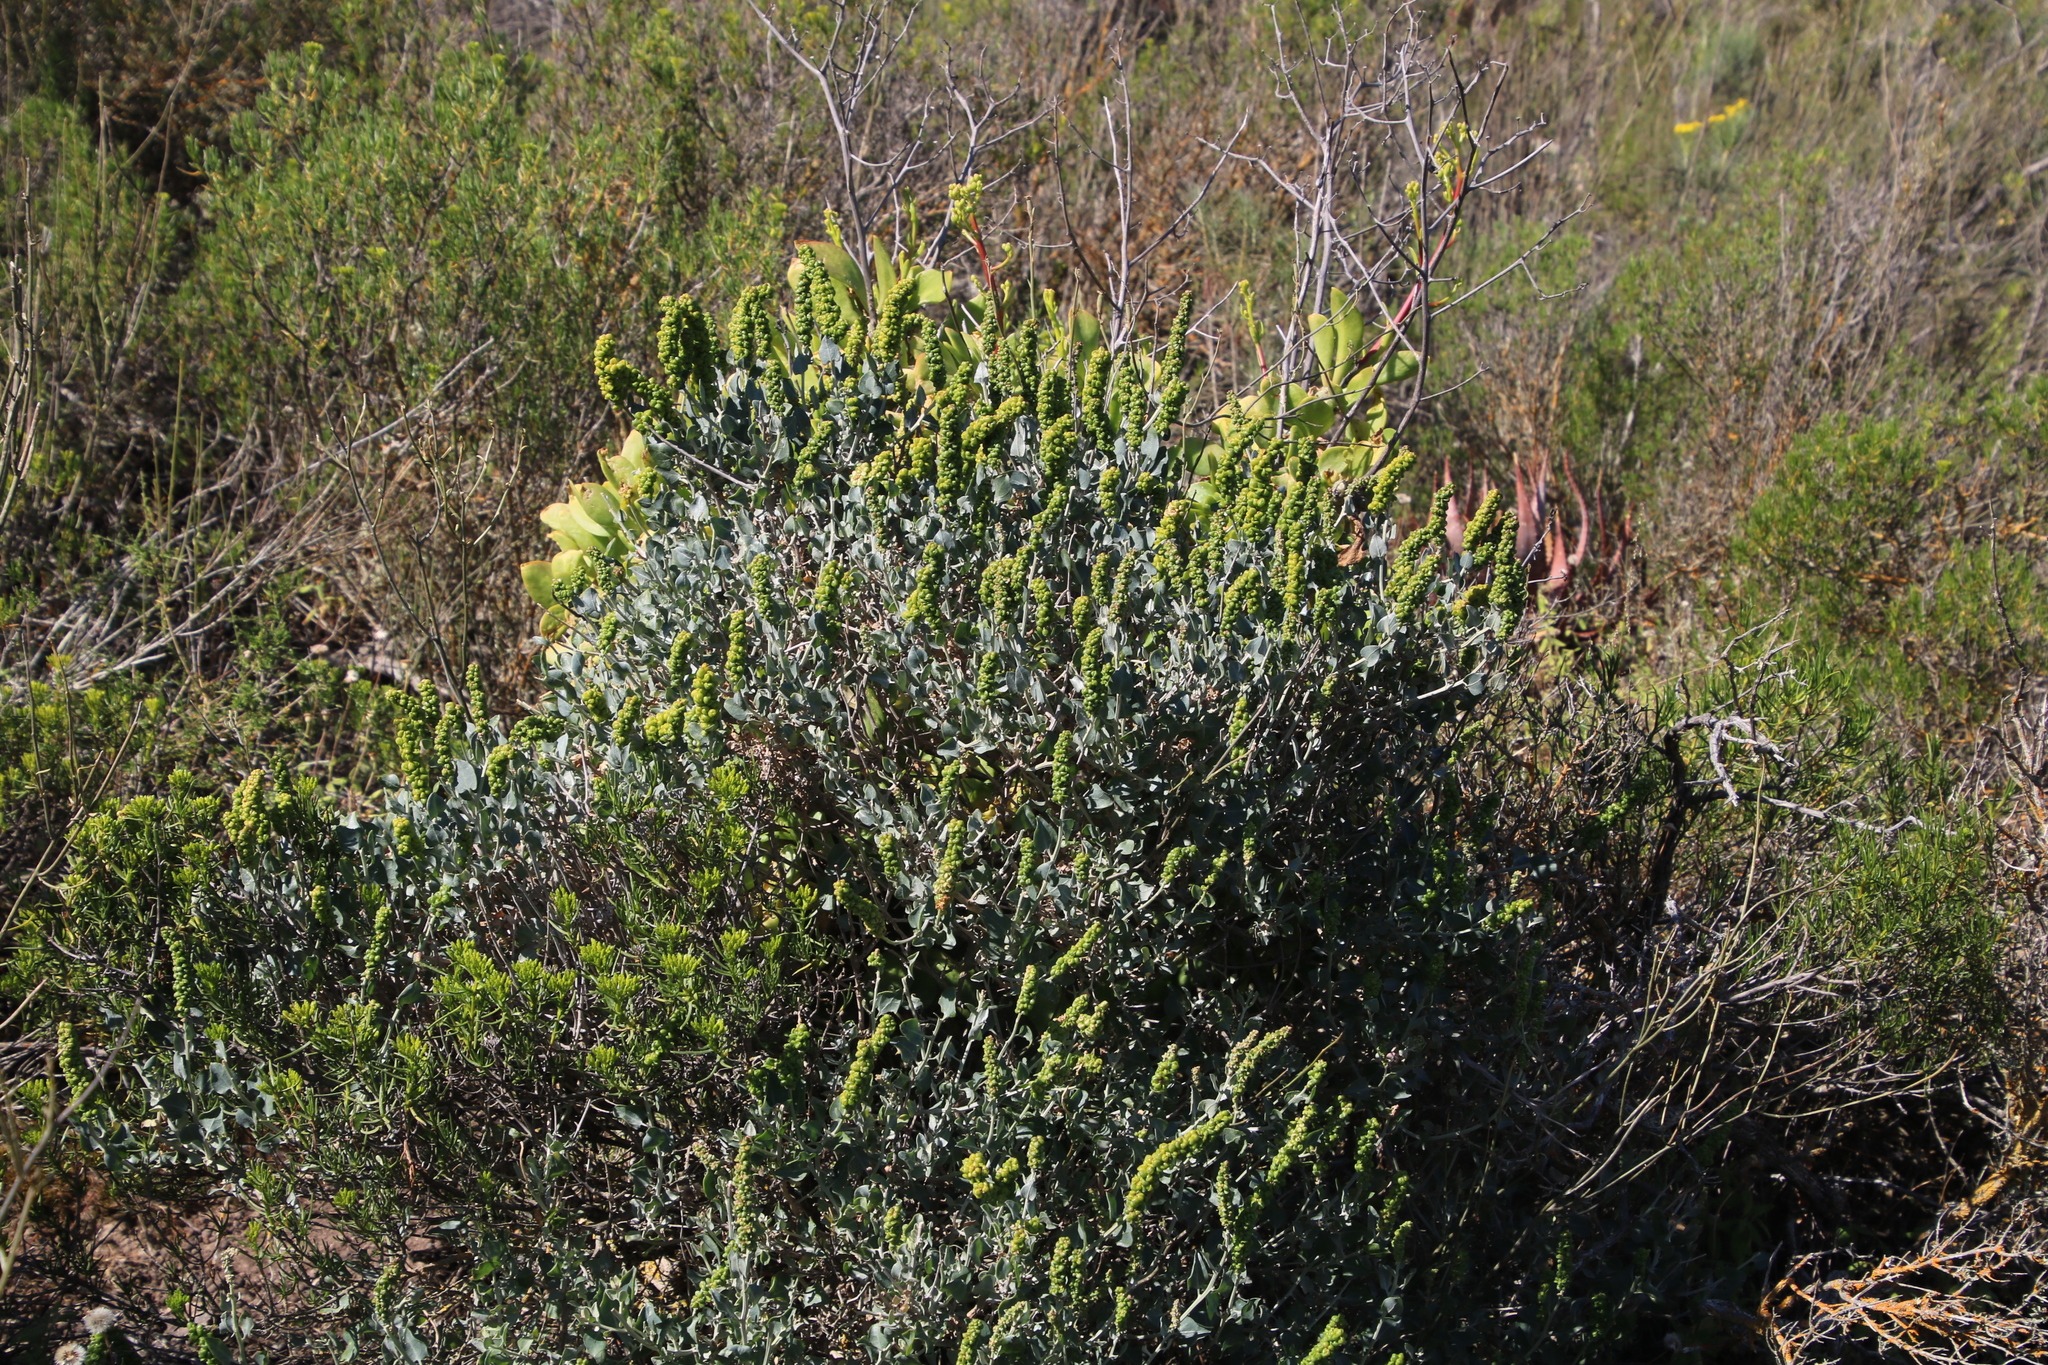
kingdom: Plantae
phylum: Tracheophyta
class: Magnoliopsida
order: Caryophyllales
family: Amaranthaceae
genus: Exomis
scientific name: Exomis albicans
